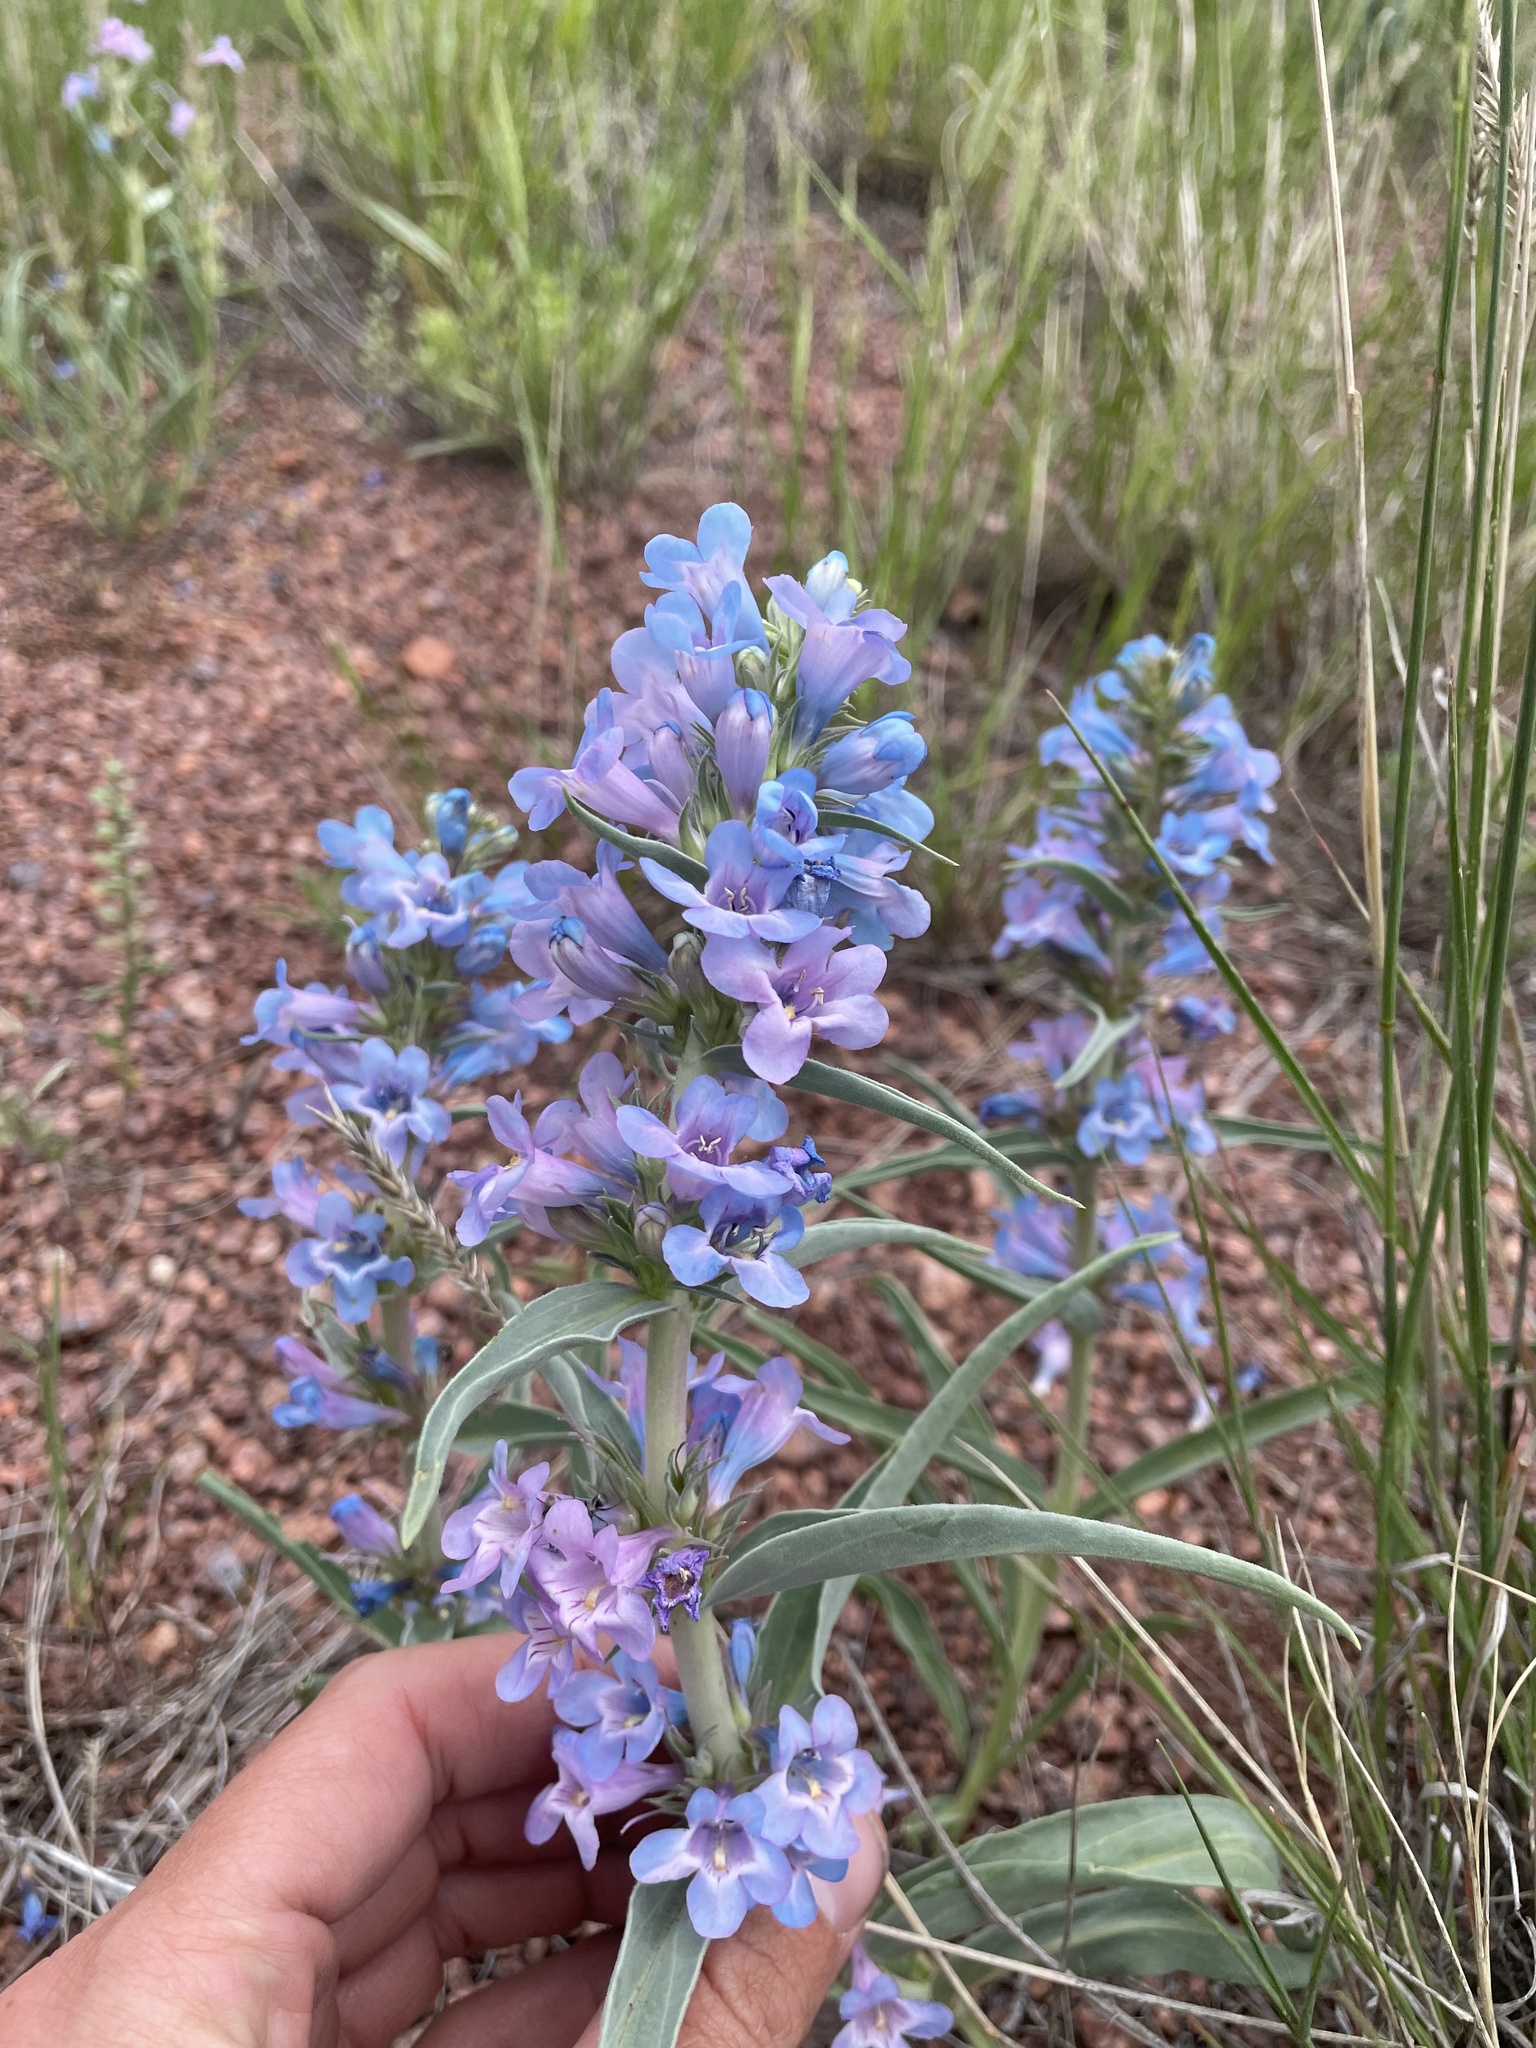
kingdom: Plantae
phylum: Tracheophyta
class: Magnoliopsida
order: Lamiales
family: Plantaginaceae
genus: Penstemon
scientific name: Penstemon angustifolius
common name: Narrow beardtongue
